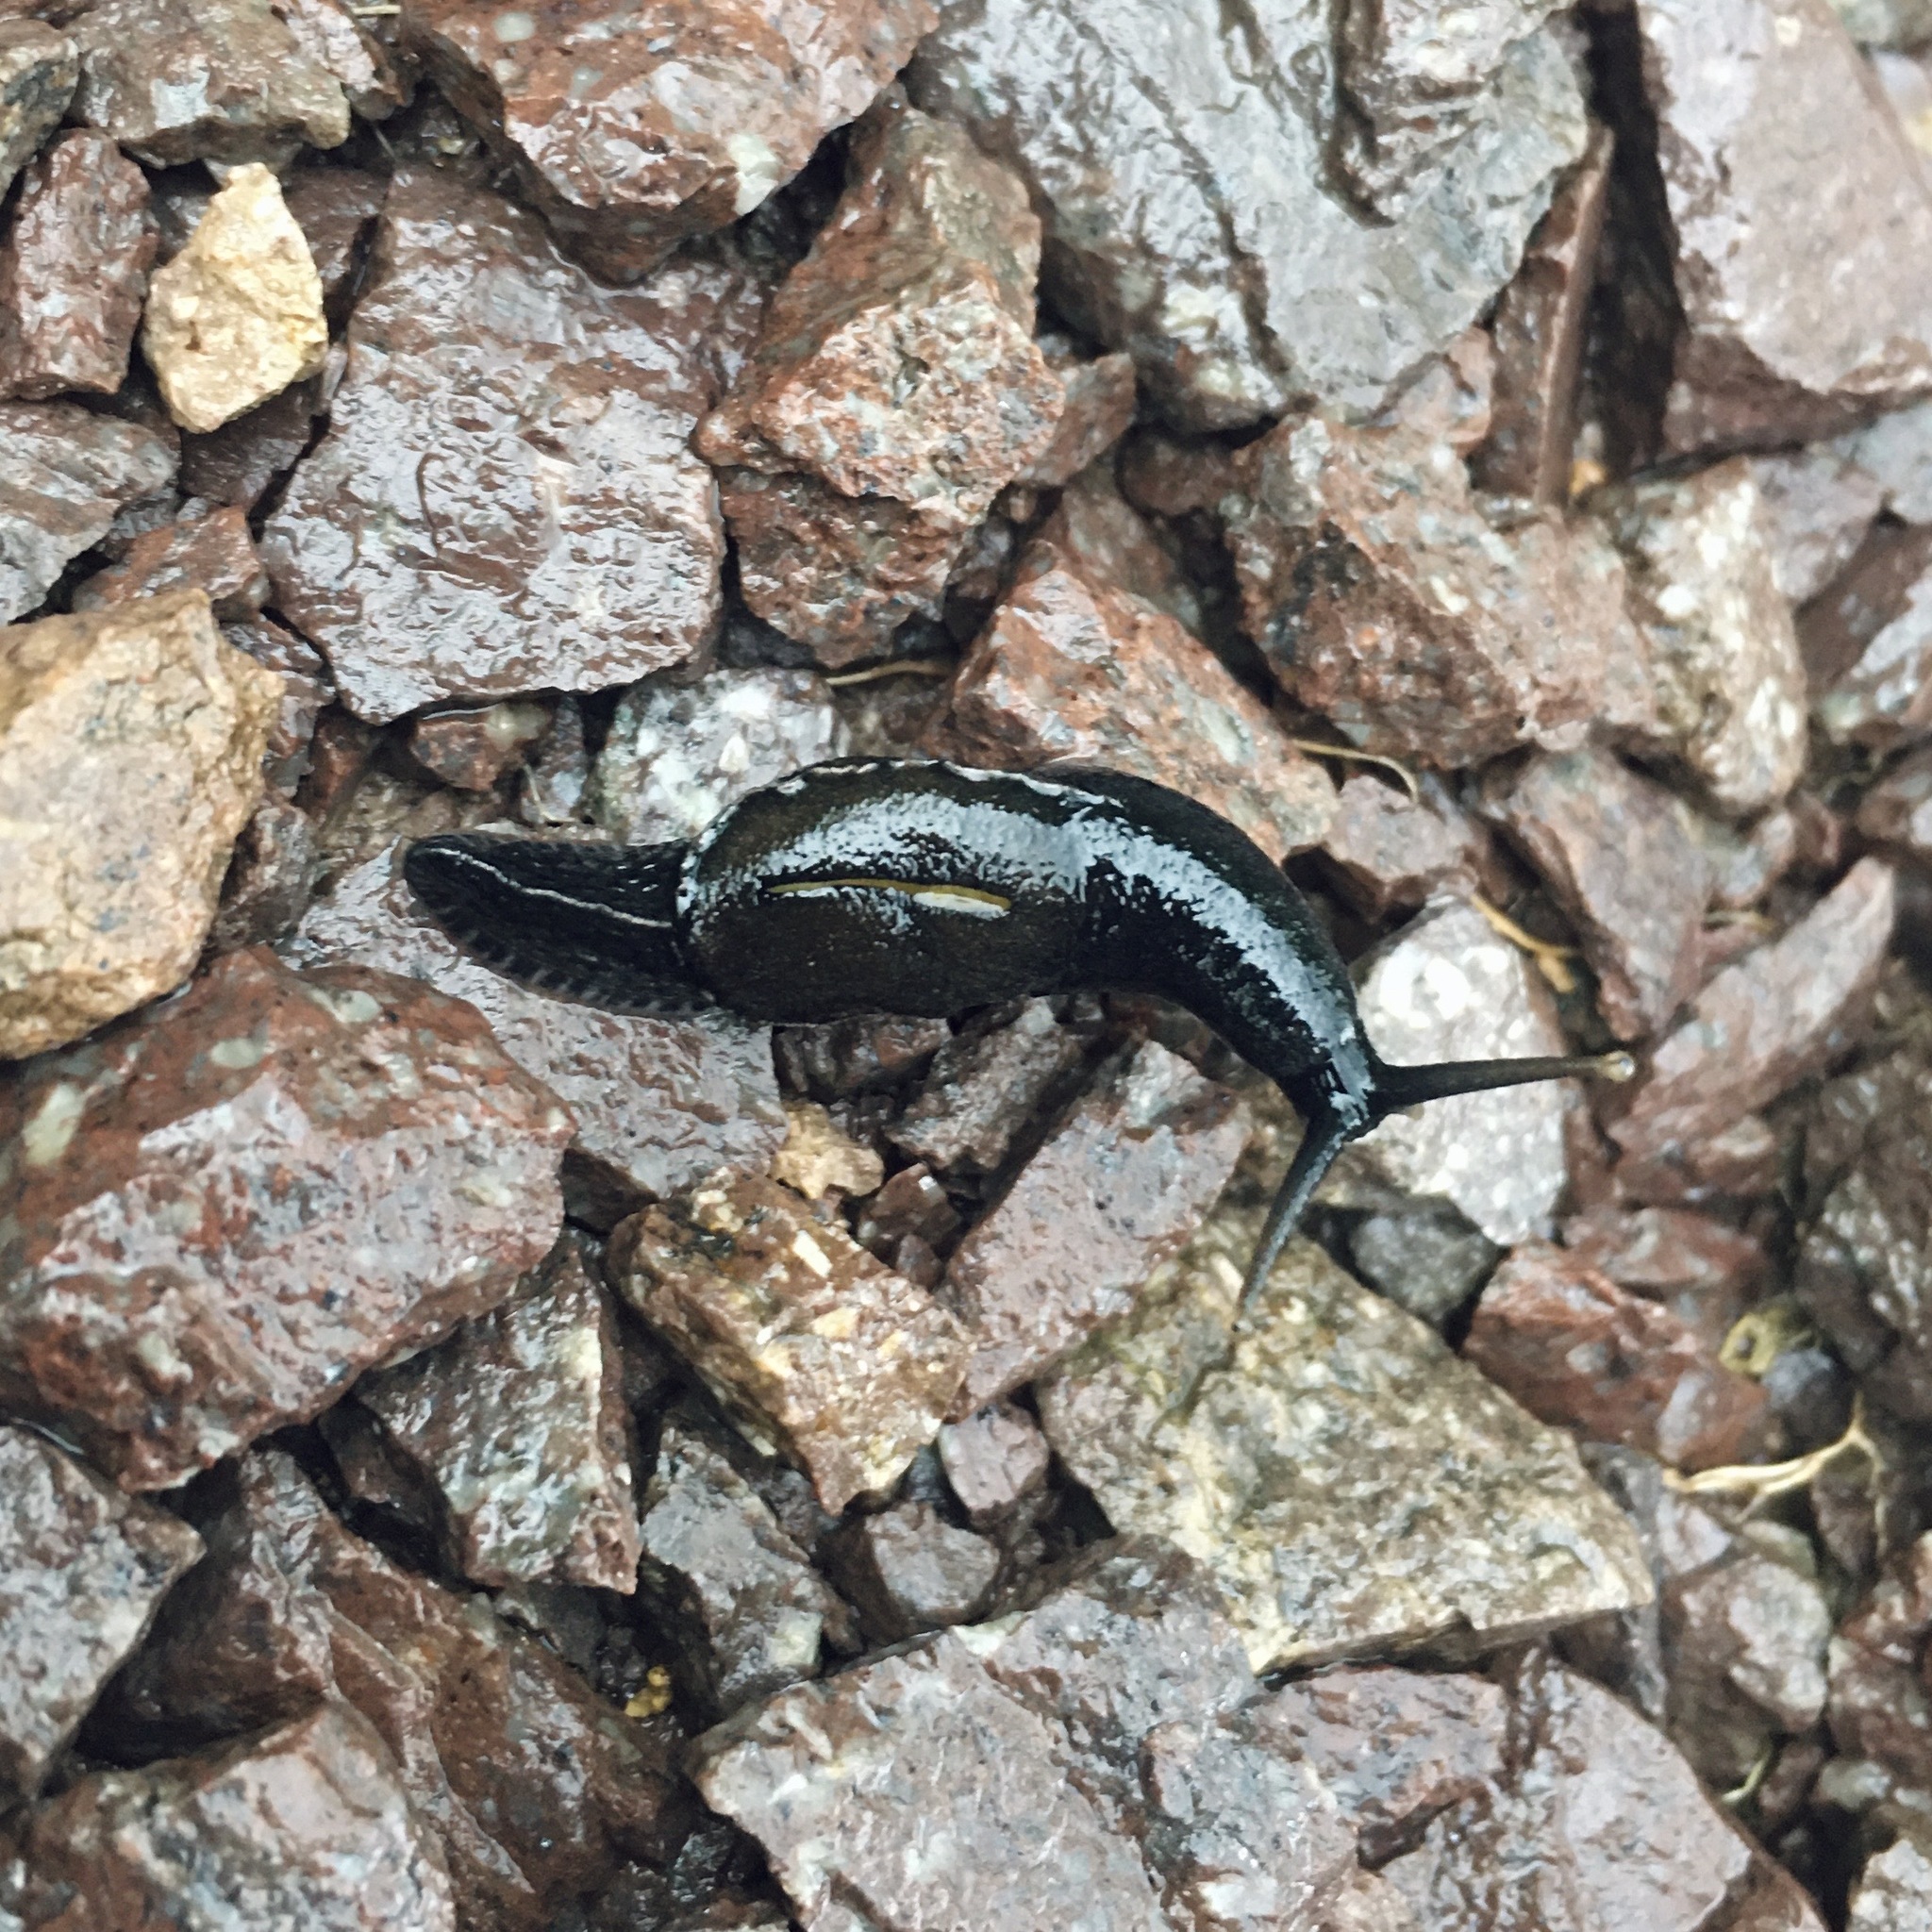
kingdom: Animalia
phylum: Mollusca
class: Gastropoda
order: Stylommatophora
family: Ariophantidae
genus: Parmarion
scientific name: Parmarion martensi
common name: Semi-slug
